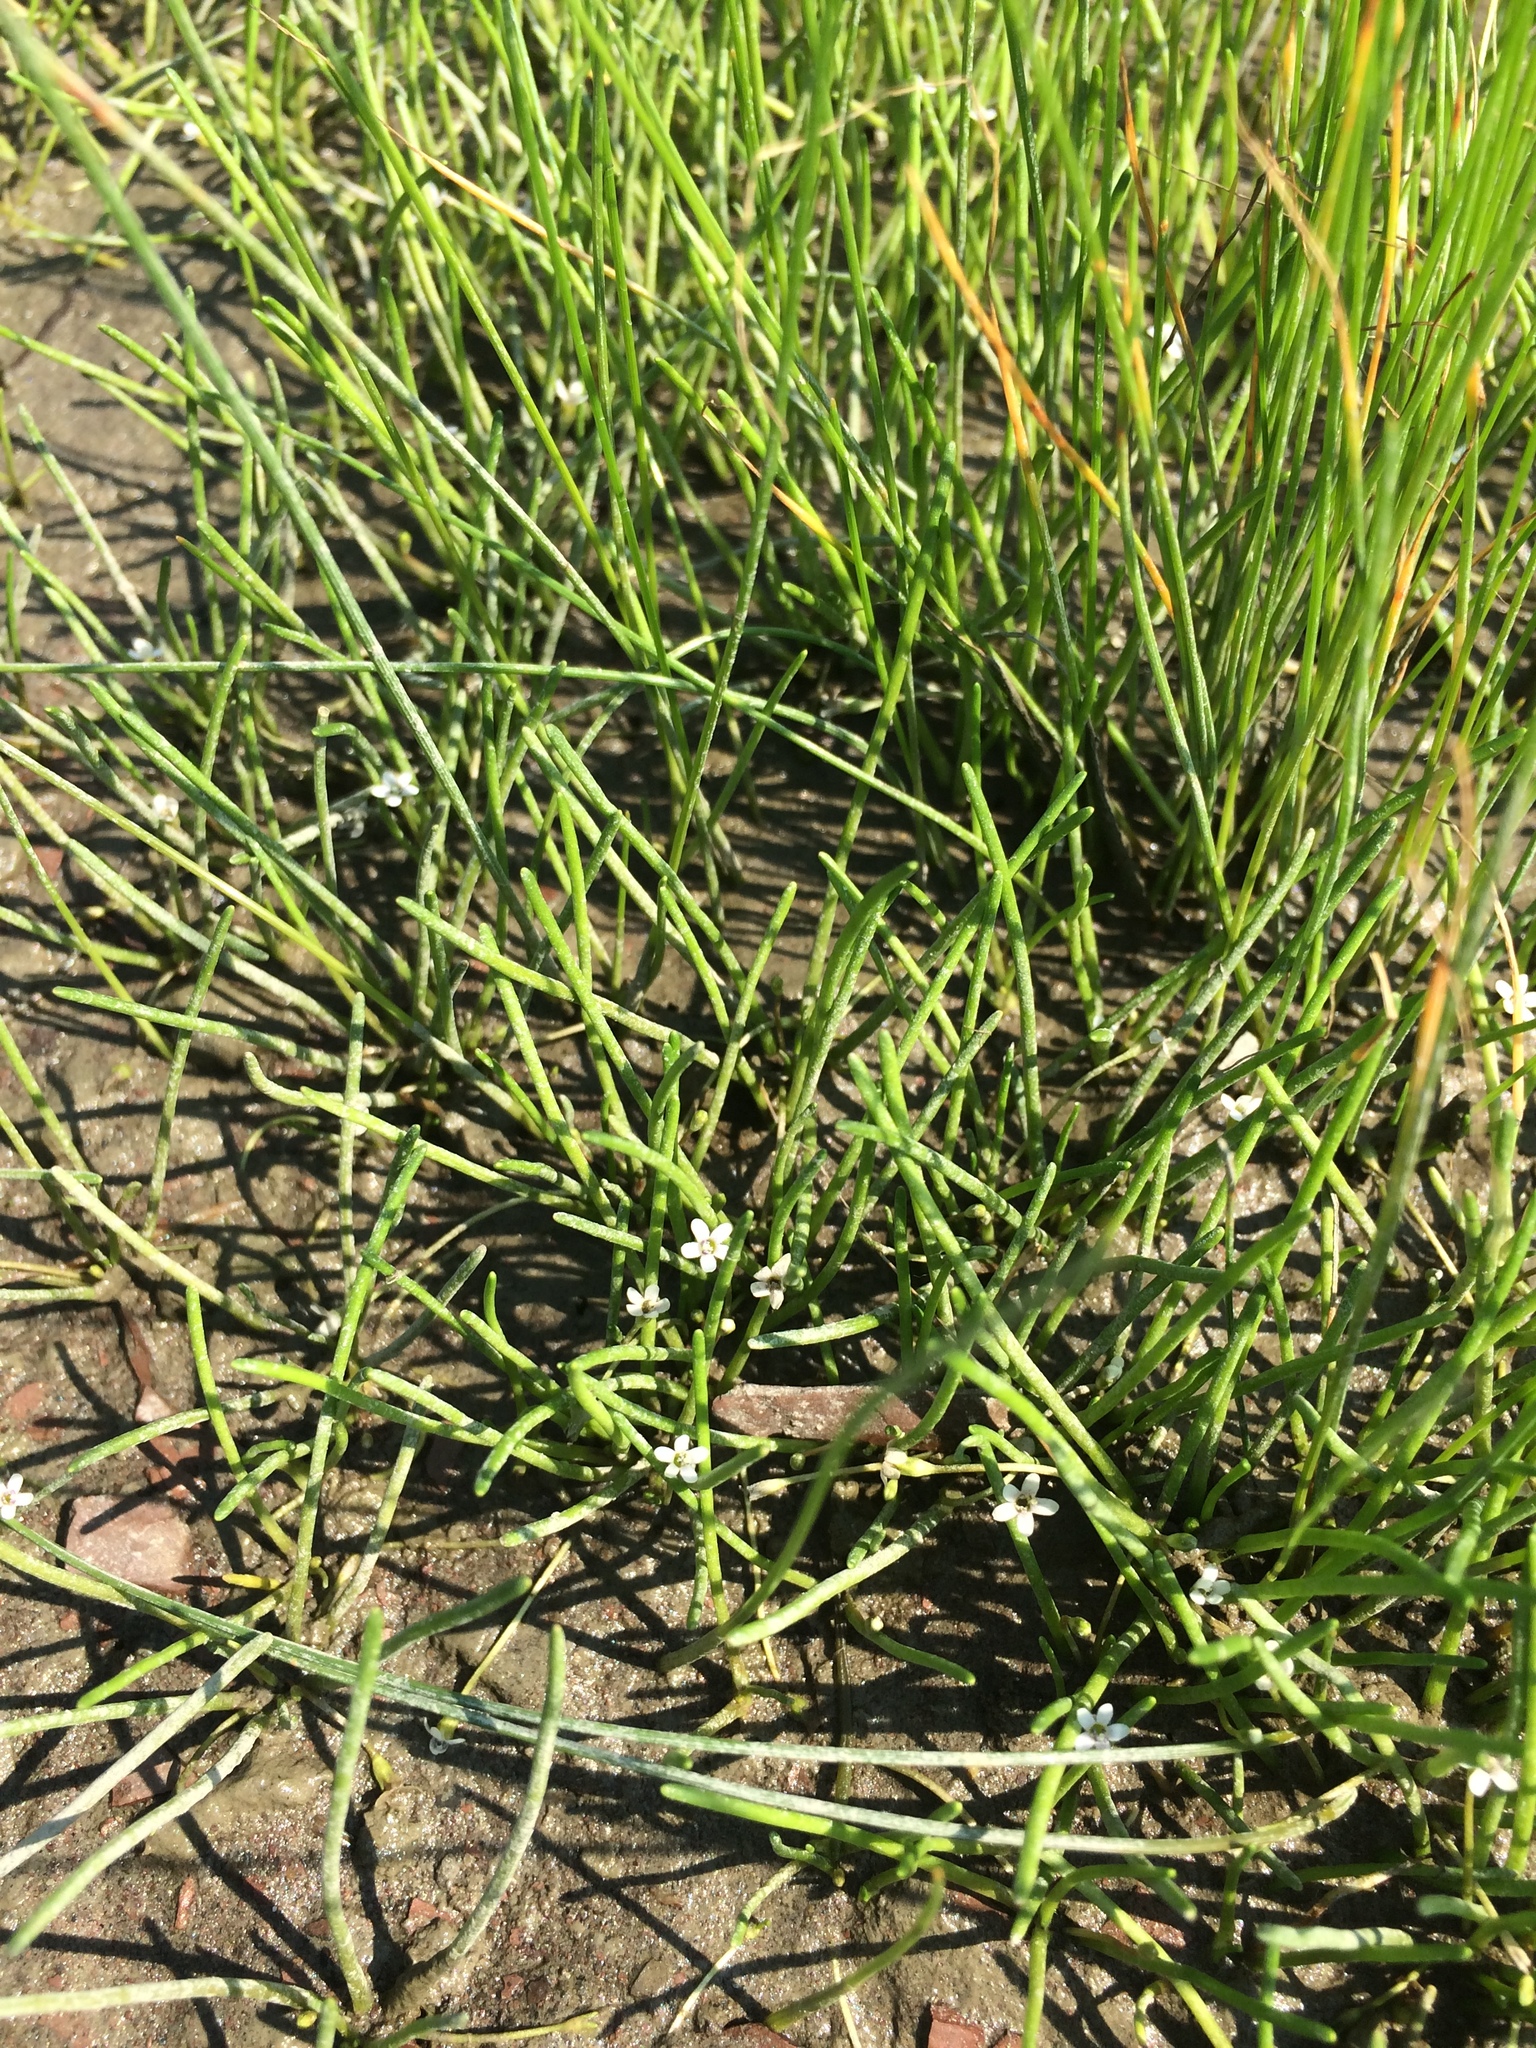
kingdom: Plantae
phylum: Tracheophyta
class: Magnoliopsida
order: Lamiales
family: Scrophulariaceae
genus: Limosella
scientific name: Limosella australis
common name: Welsh mudwort
